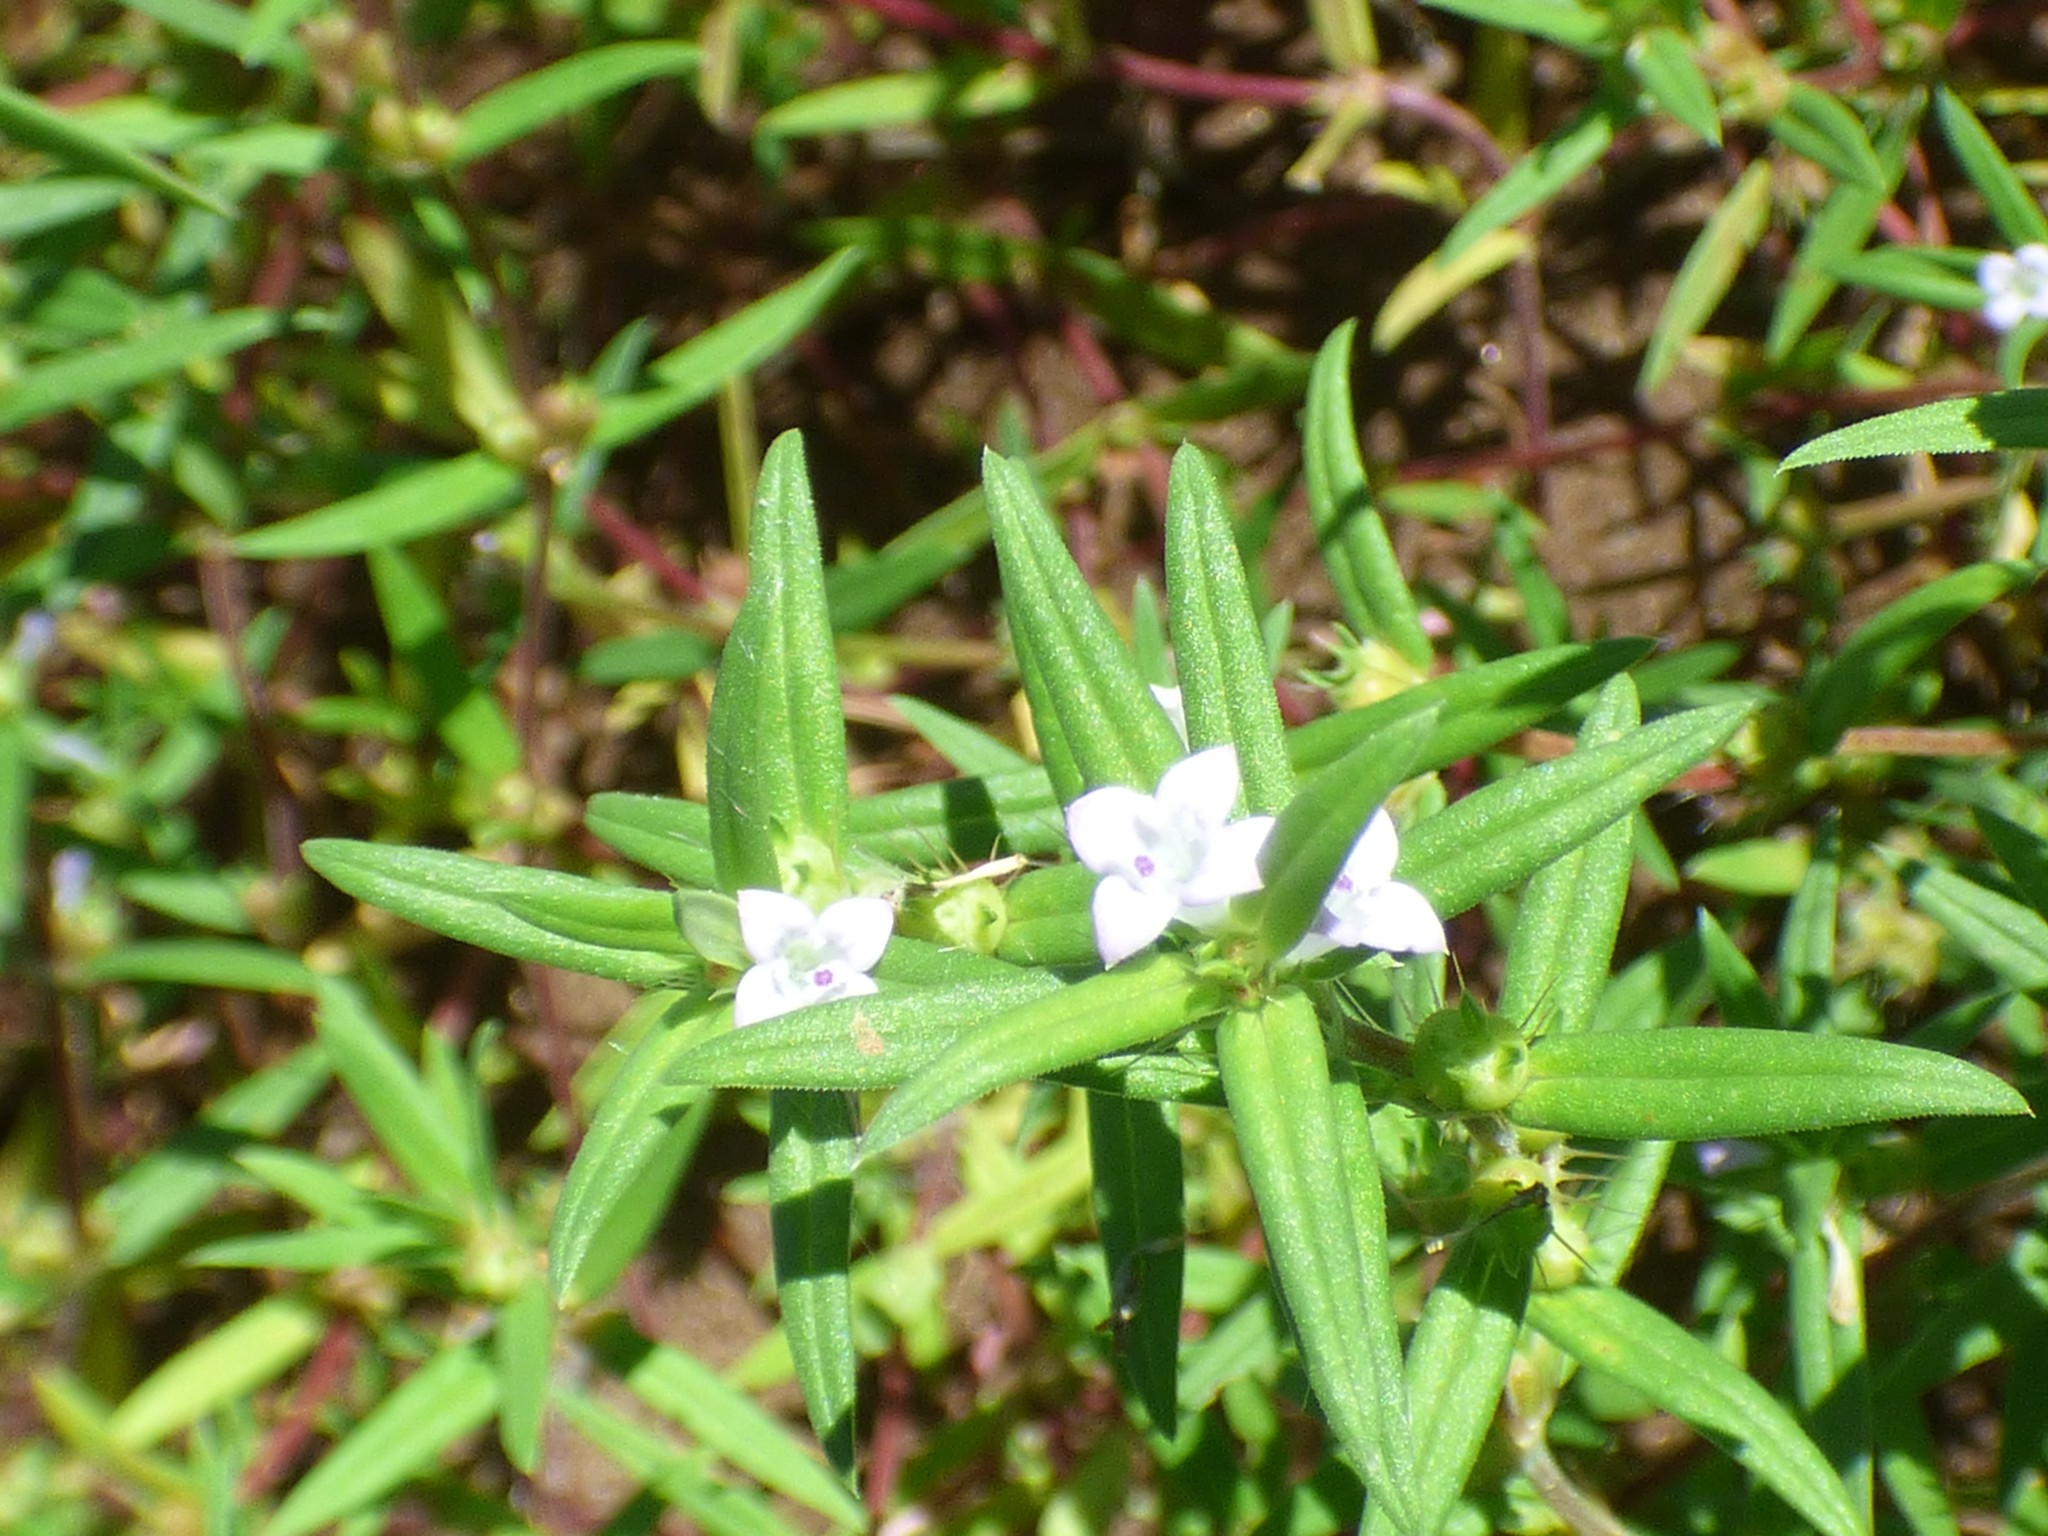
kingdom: Plantae
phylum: Tracheophyta
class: Magnoliopsida
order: Gentianales
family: Rubiaceae
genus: Hexasepalum
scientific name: Hexasepalum teres
